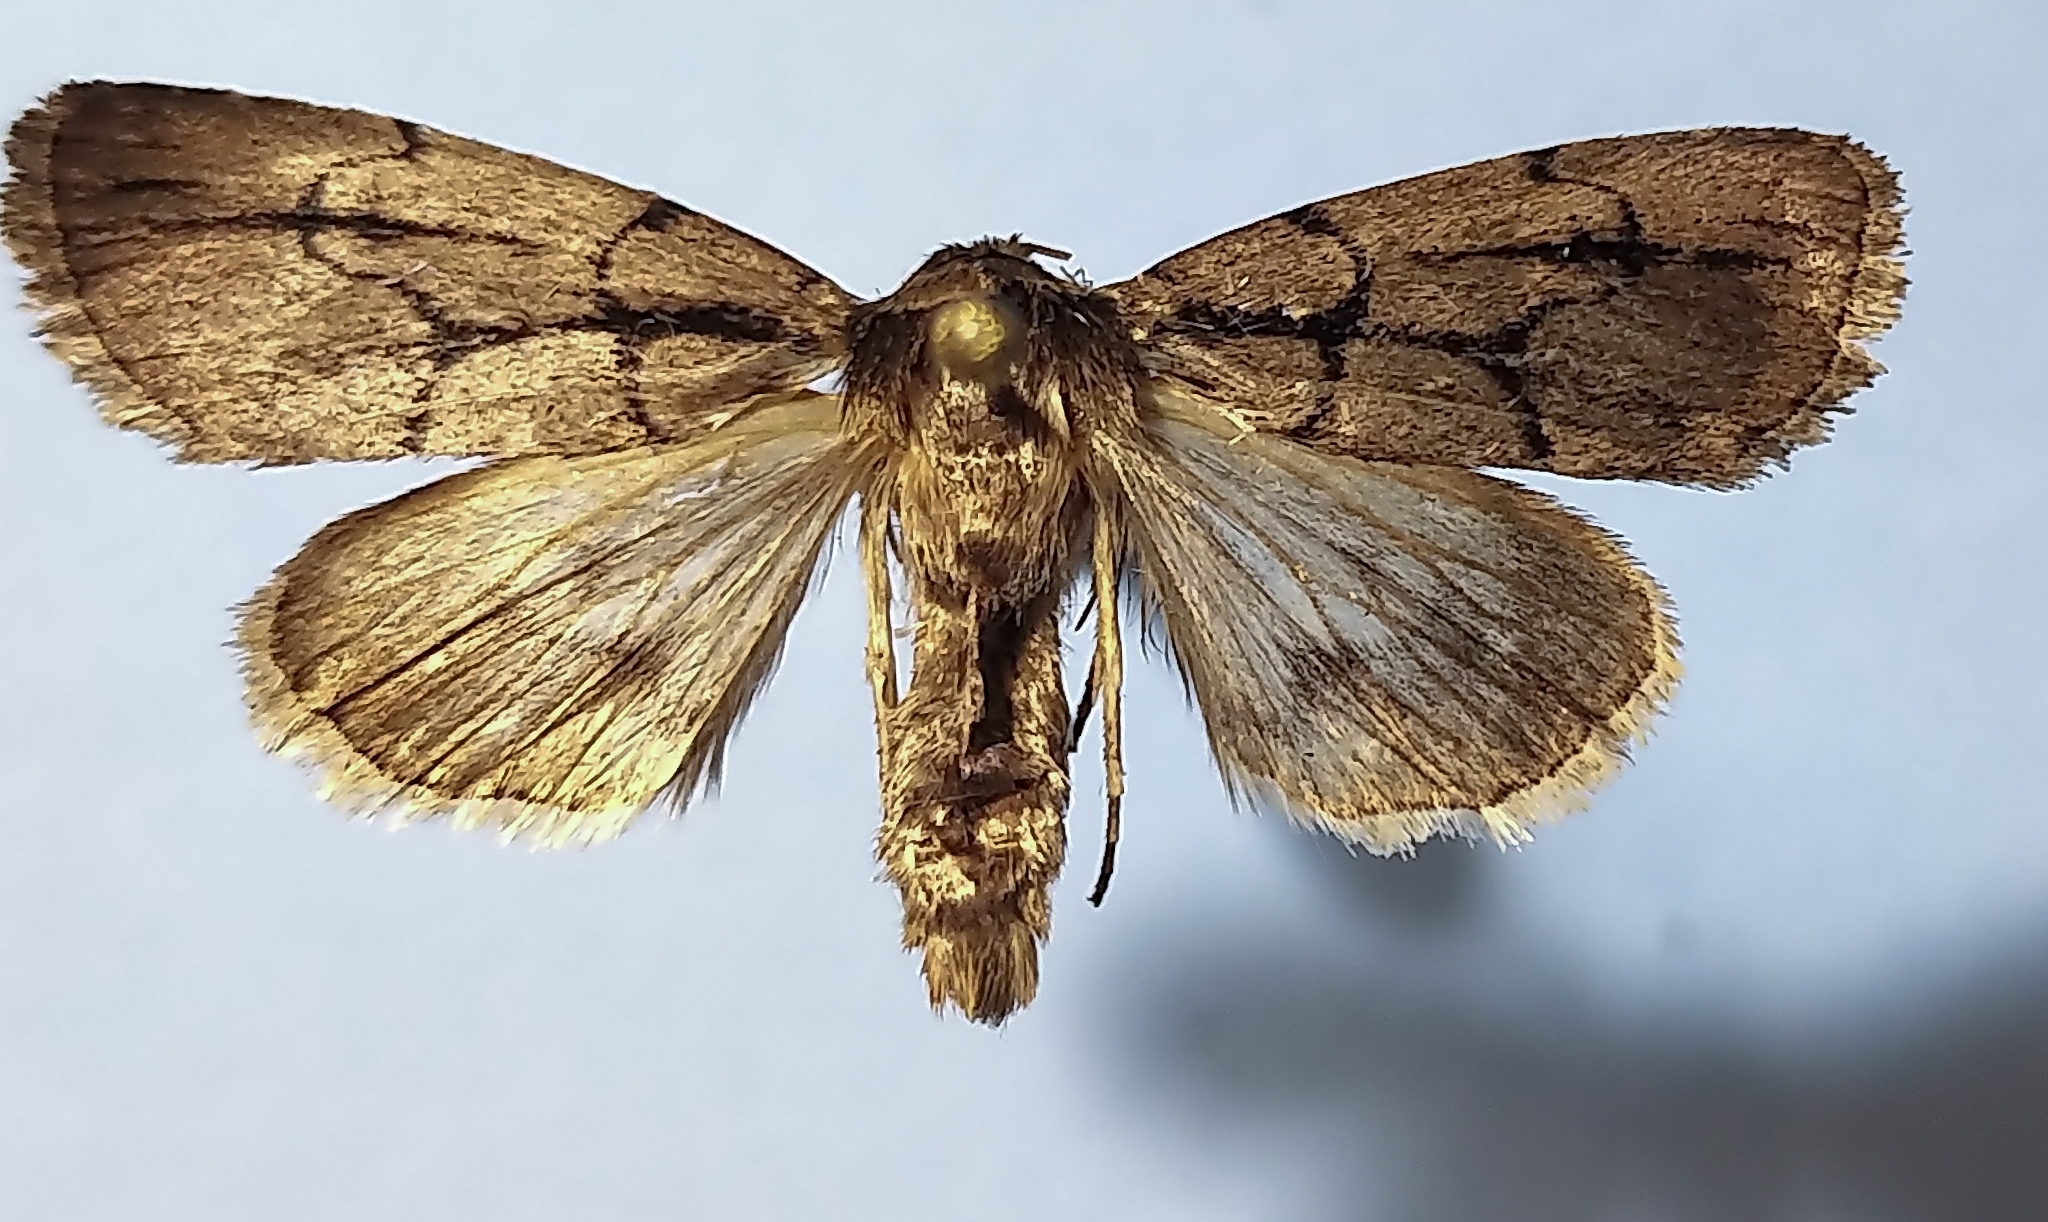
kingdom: Animalia
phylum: Arthropoda
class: Insecta
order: Lepidoptera
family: Noctuidae
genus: Sympistis
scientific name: Sympistis dinalda
